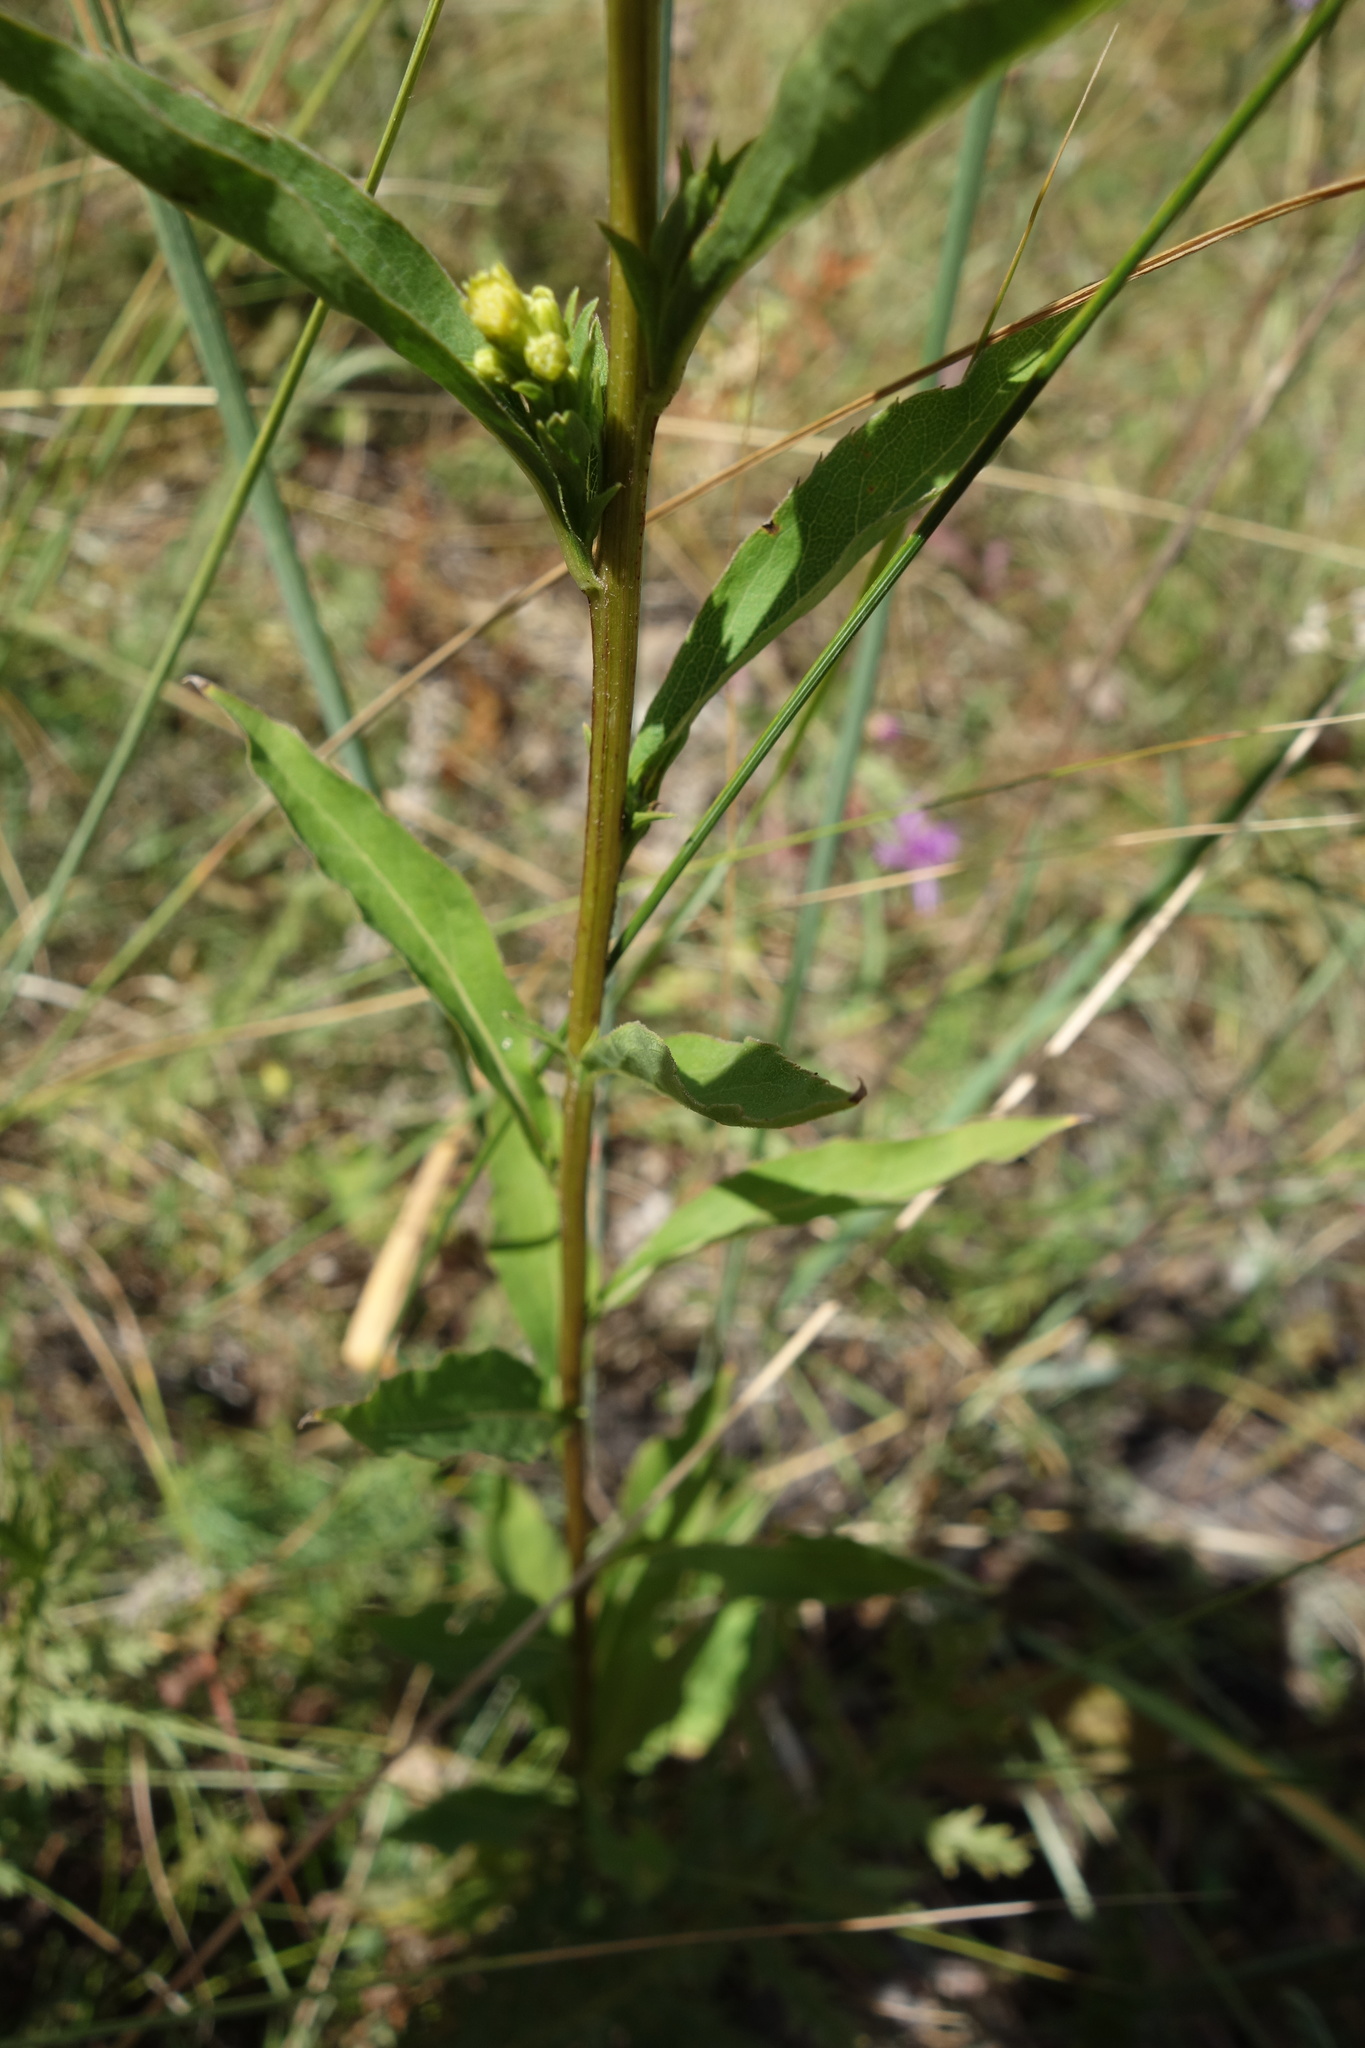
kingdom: Plantae
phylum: Tracheophyta
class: Magnoliopsida
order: Asterales
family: Asteraceae
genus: Solidago
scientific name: Solidago virgaurea
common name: Goldenrod
